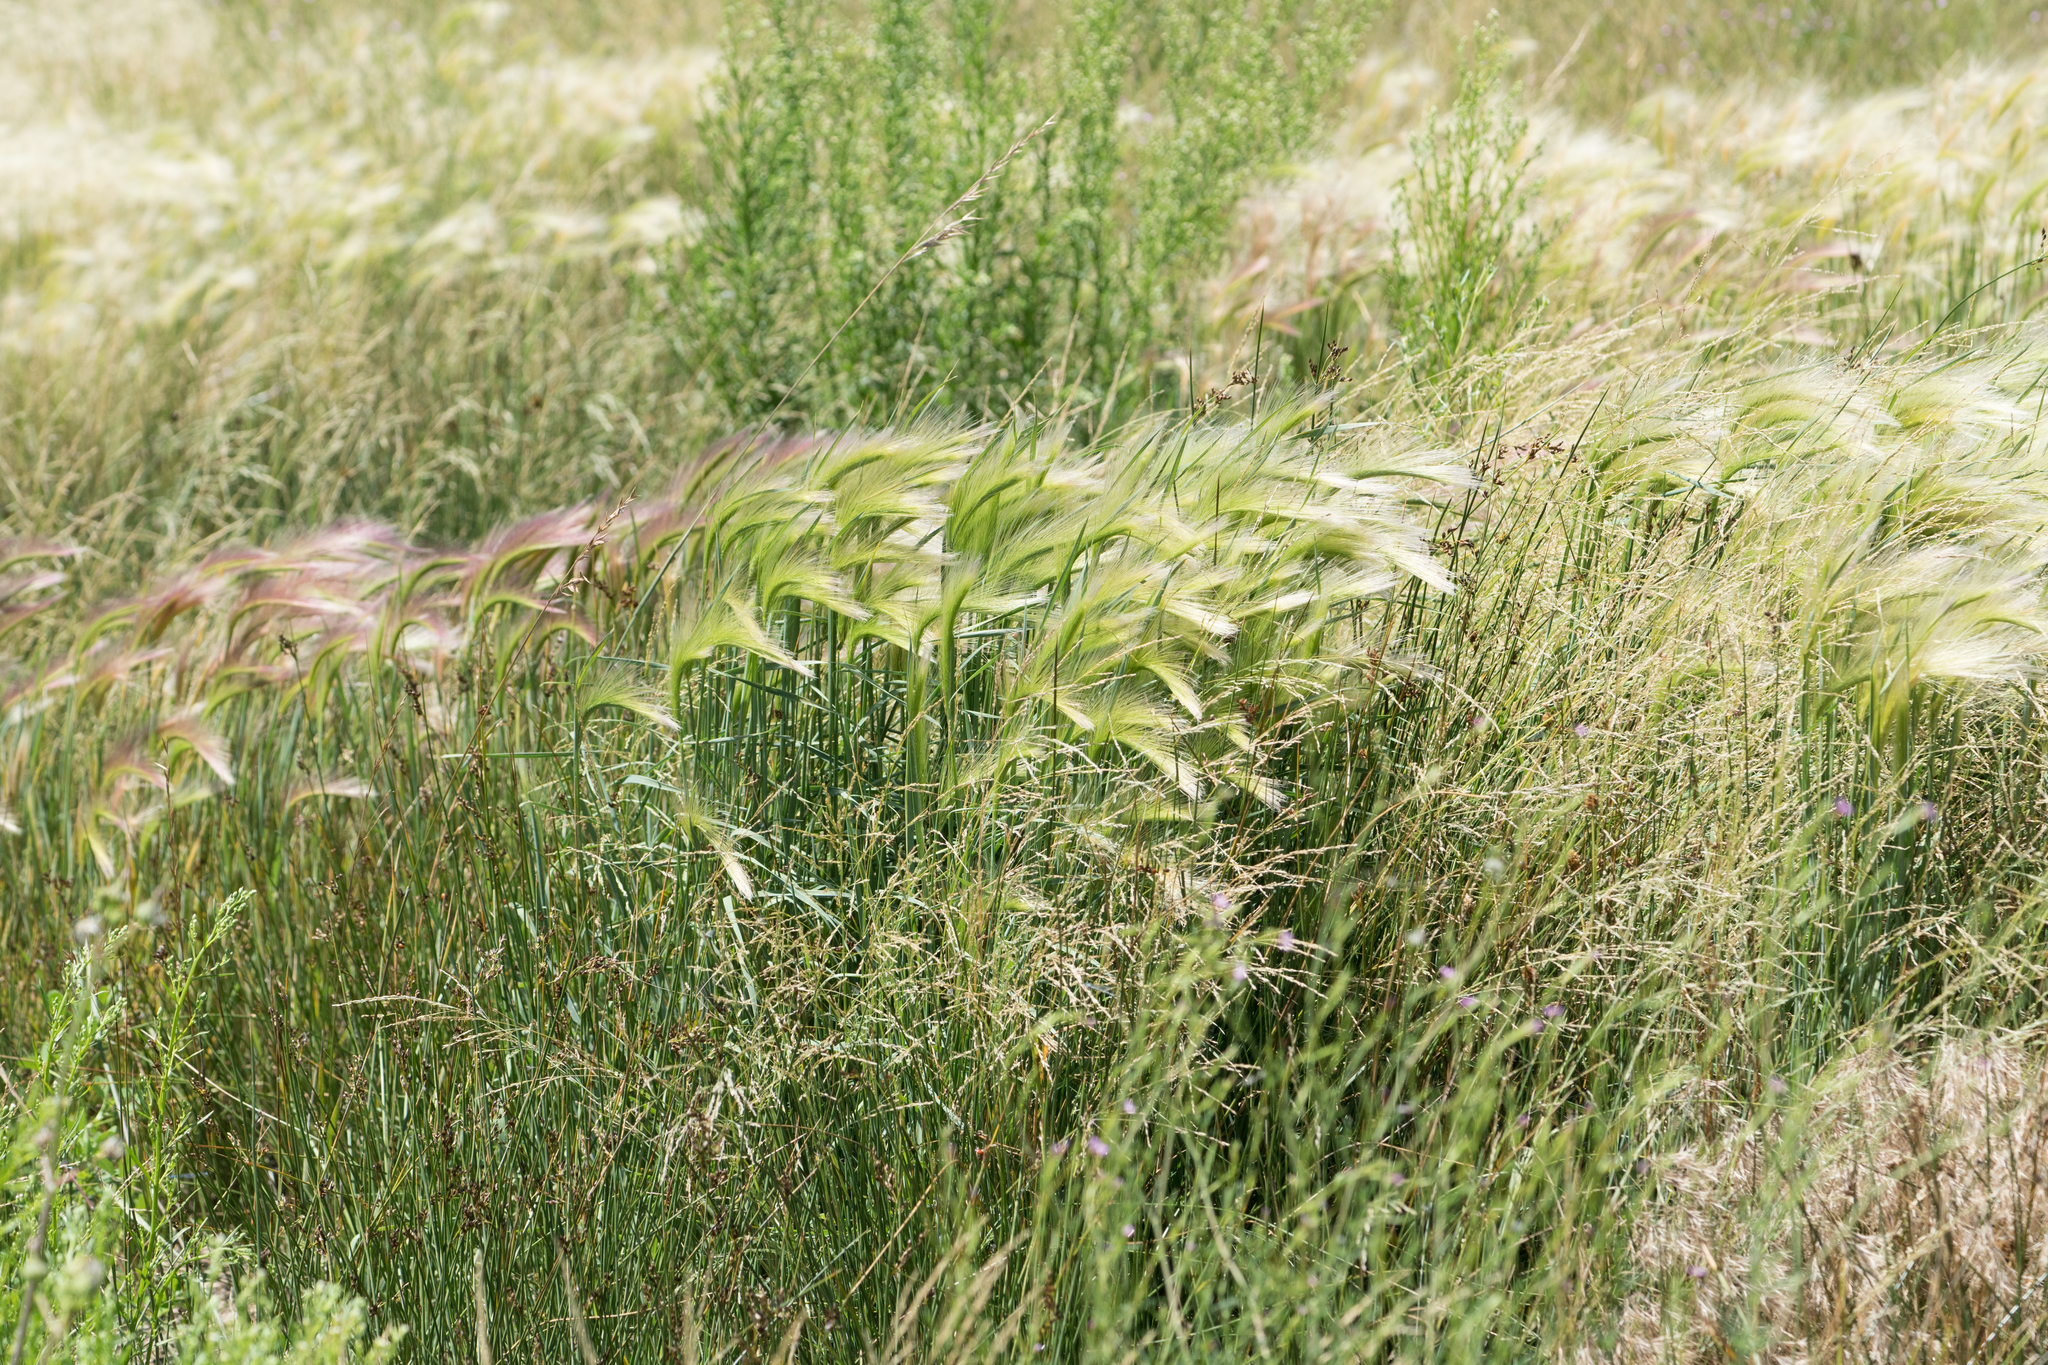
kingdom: Plantae
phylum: Tracheophyta
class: Liliopsida
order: Poales
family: Poaceae
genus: Hordeum
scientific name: Hordeum jubatum
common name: Foxtail barley
